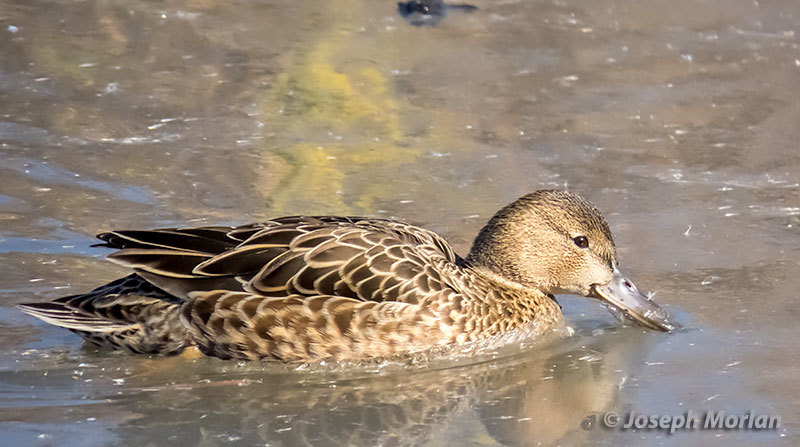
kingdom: Animalia
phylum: Chordata
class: Aves
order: Anseriformes
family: Anatidae
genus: Spatula
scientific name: Spatula cyanoptera
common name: Cinnamon teal
